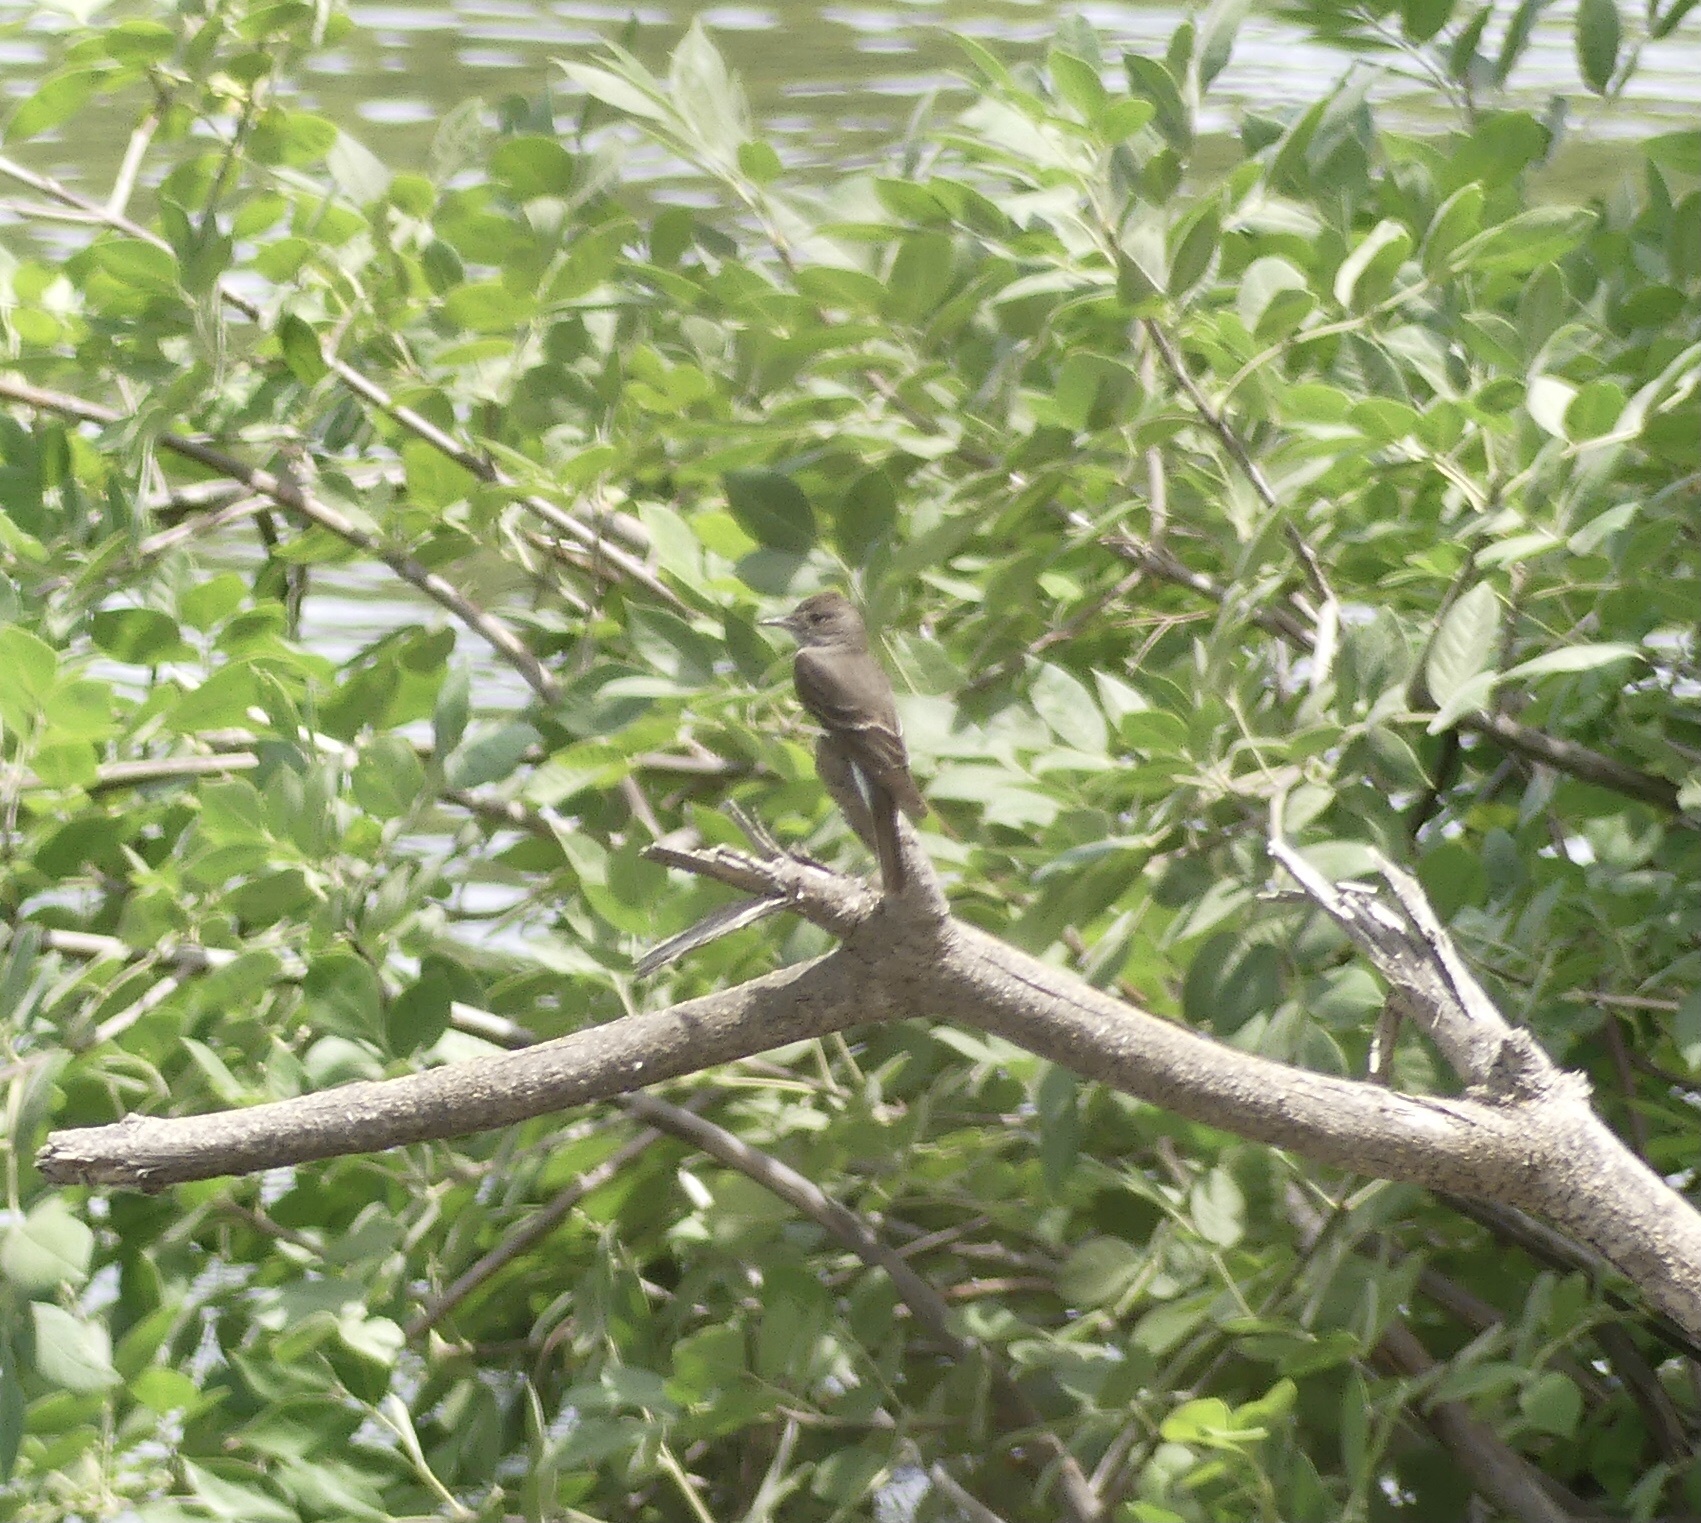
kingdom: Animalia
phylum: Chordata
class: Aves
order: Passeriformes
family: Tyrannidae
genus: Contopus
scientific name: Contopus sordidulus
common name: Western wood-pewee
